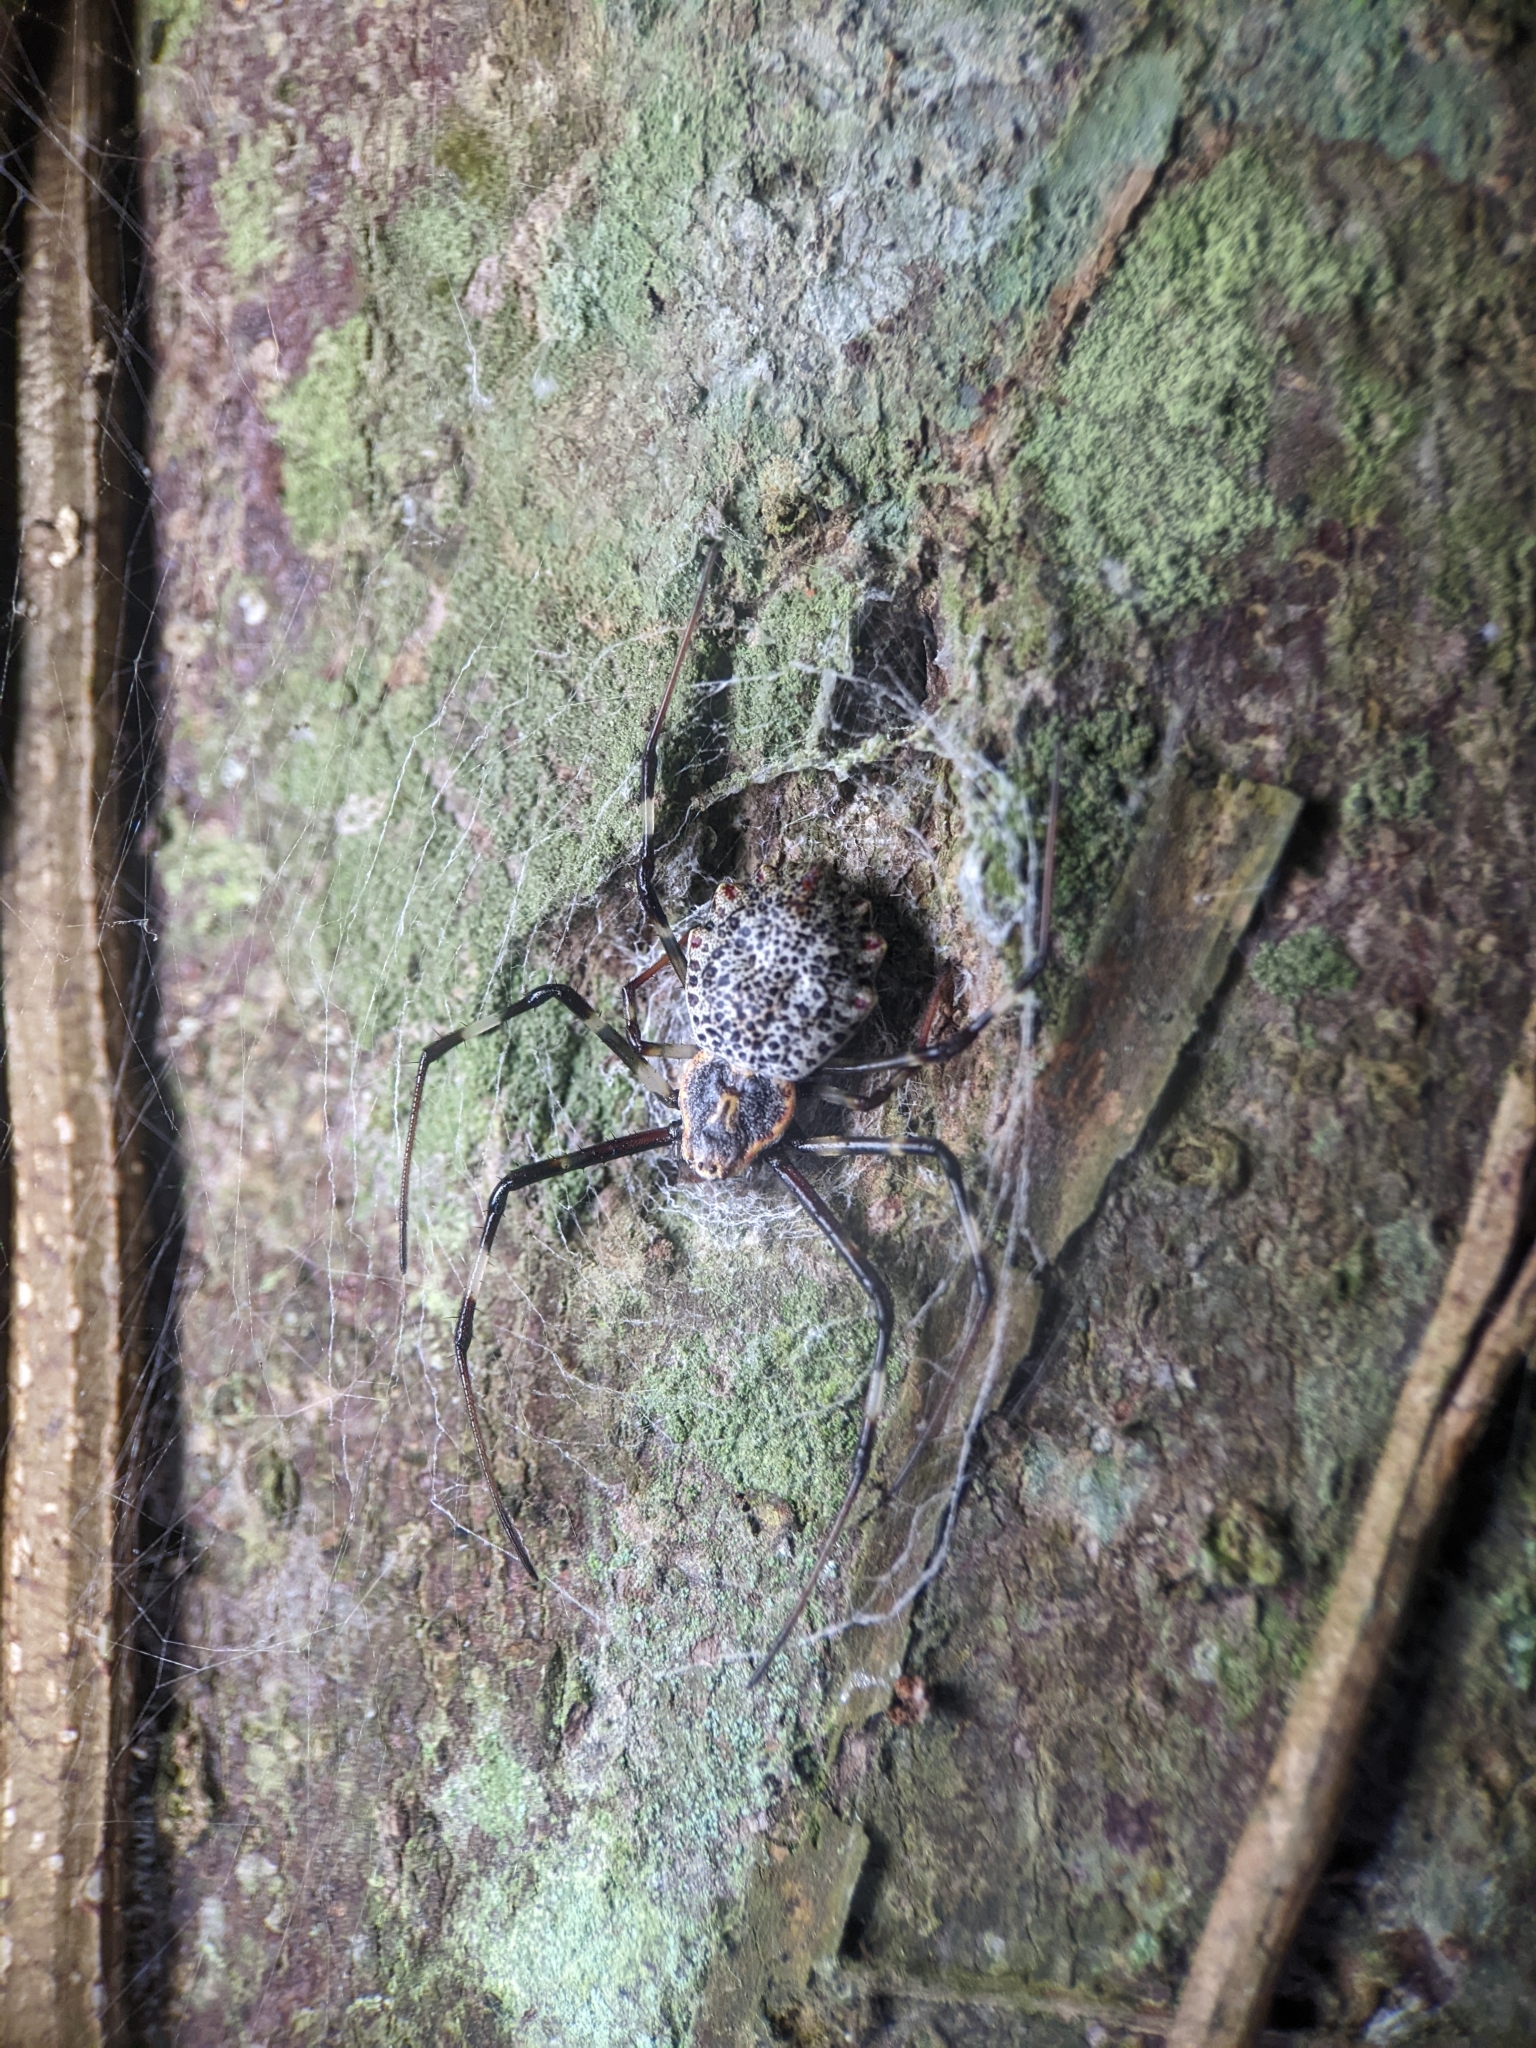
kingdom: Animalia
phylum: Arthropoda
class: Arachnida
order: Araneae
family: Araneidae
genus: Herennia
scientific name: Herennia multipuncta
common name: Spotted coin spider
